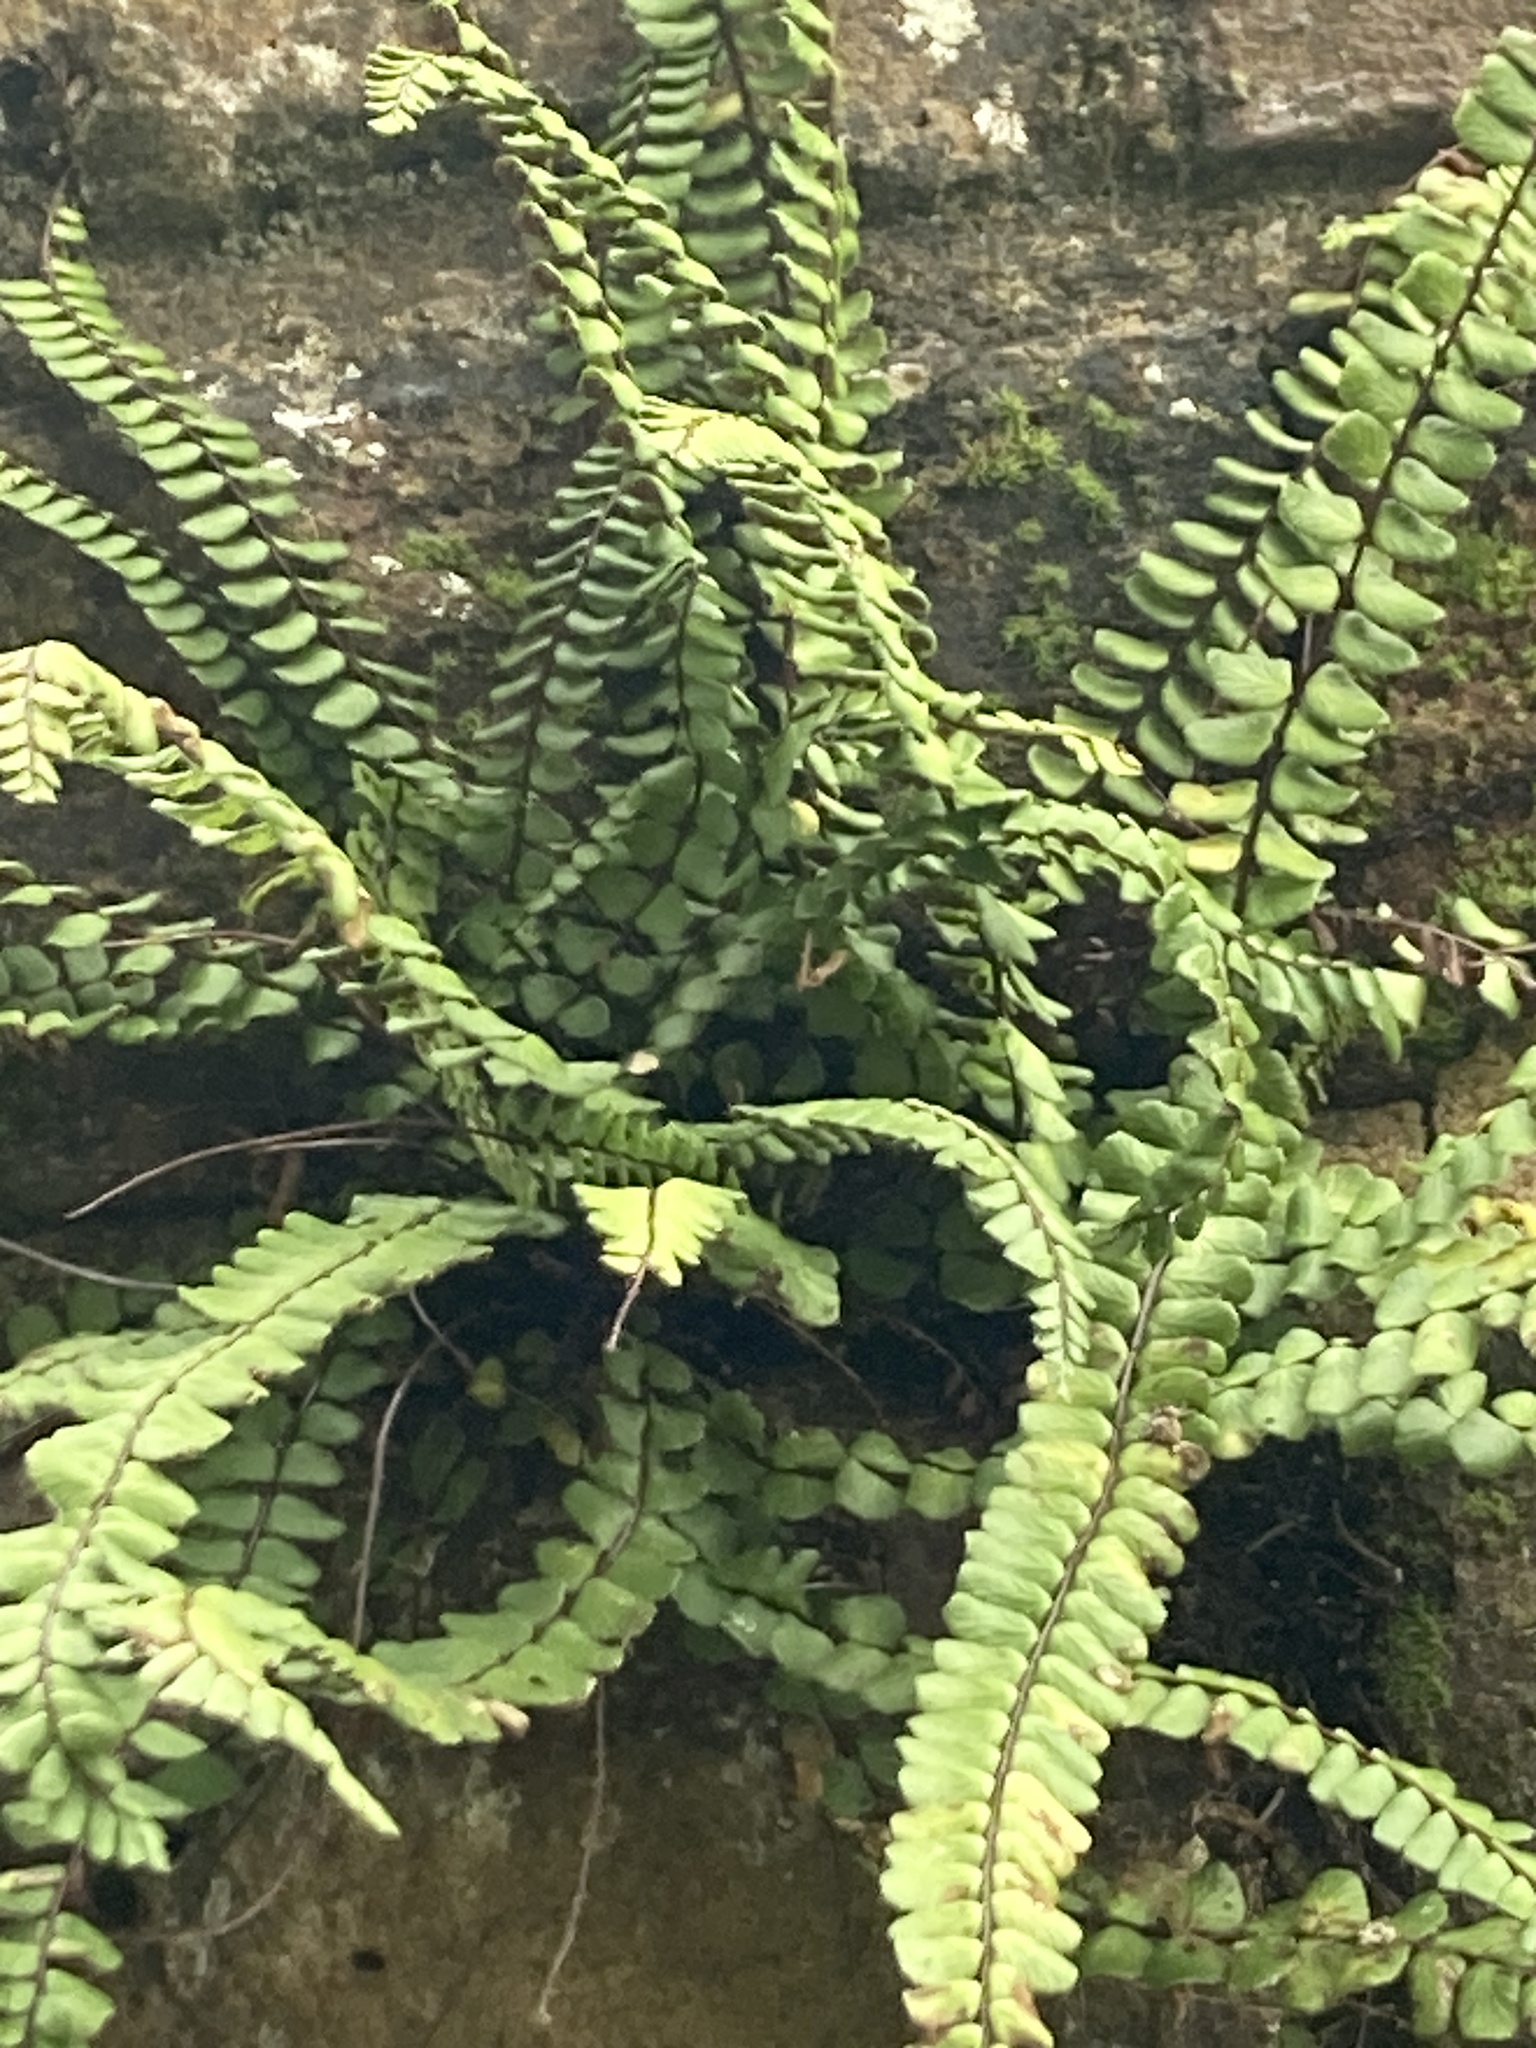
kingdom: Plantae
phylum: Tracheophyta
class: Polypodiopsida
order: Polypodiales
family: Aspleniaceae
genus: Asplenium
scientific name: Asplenium trichomanes
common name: Maidenhair spleenwort
